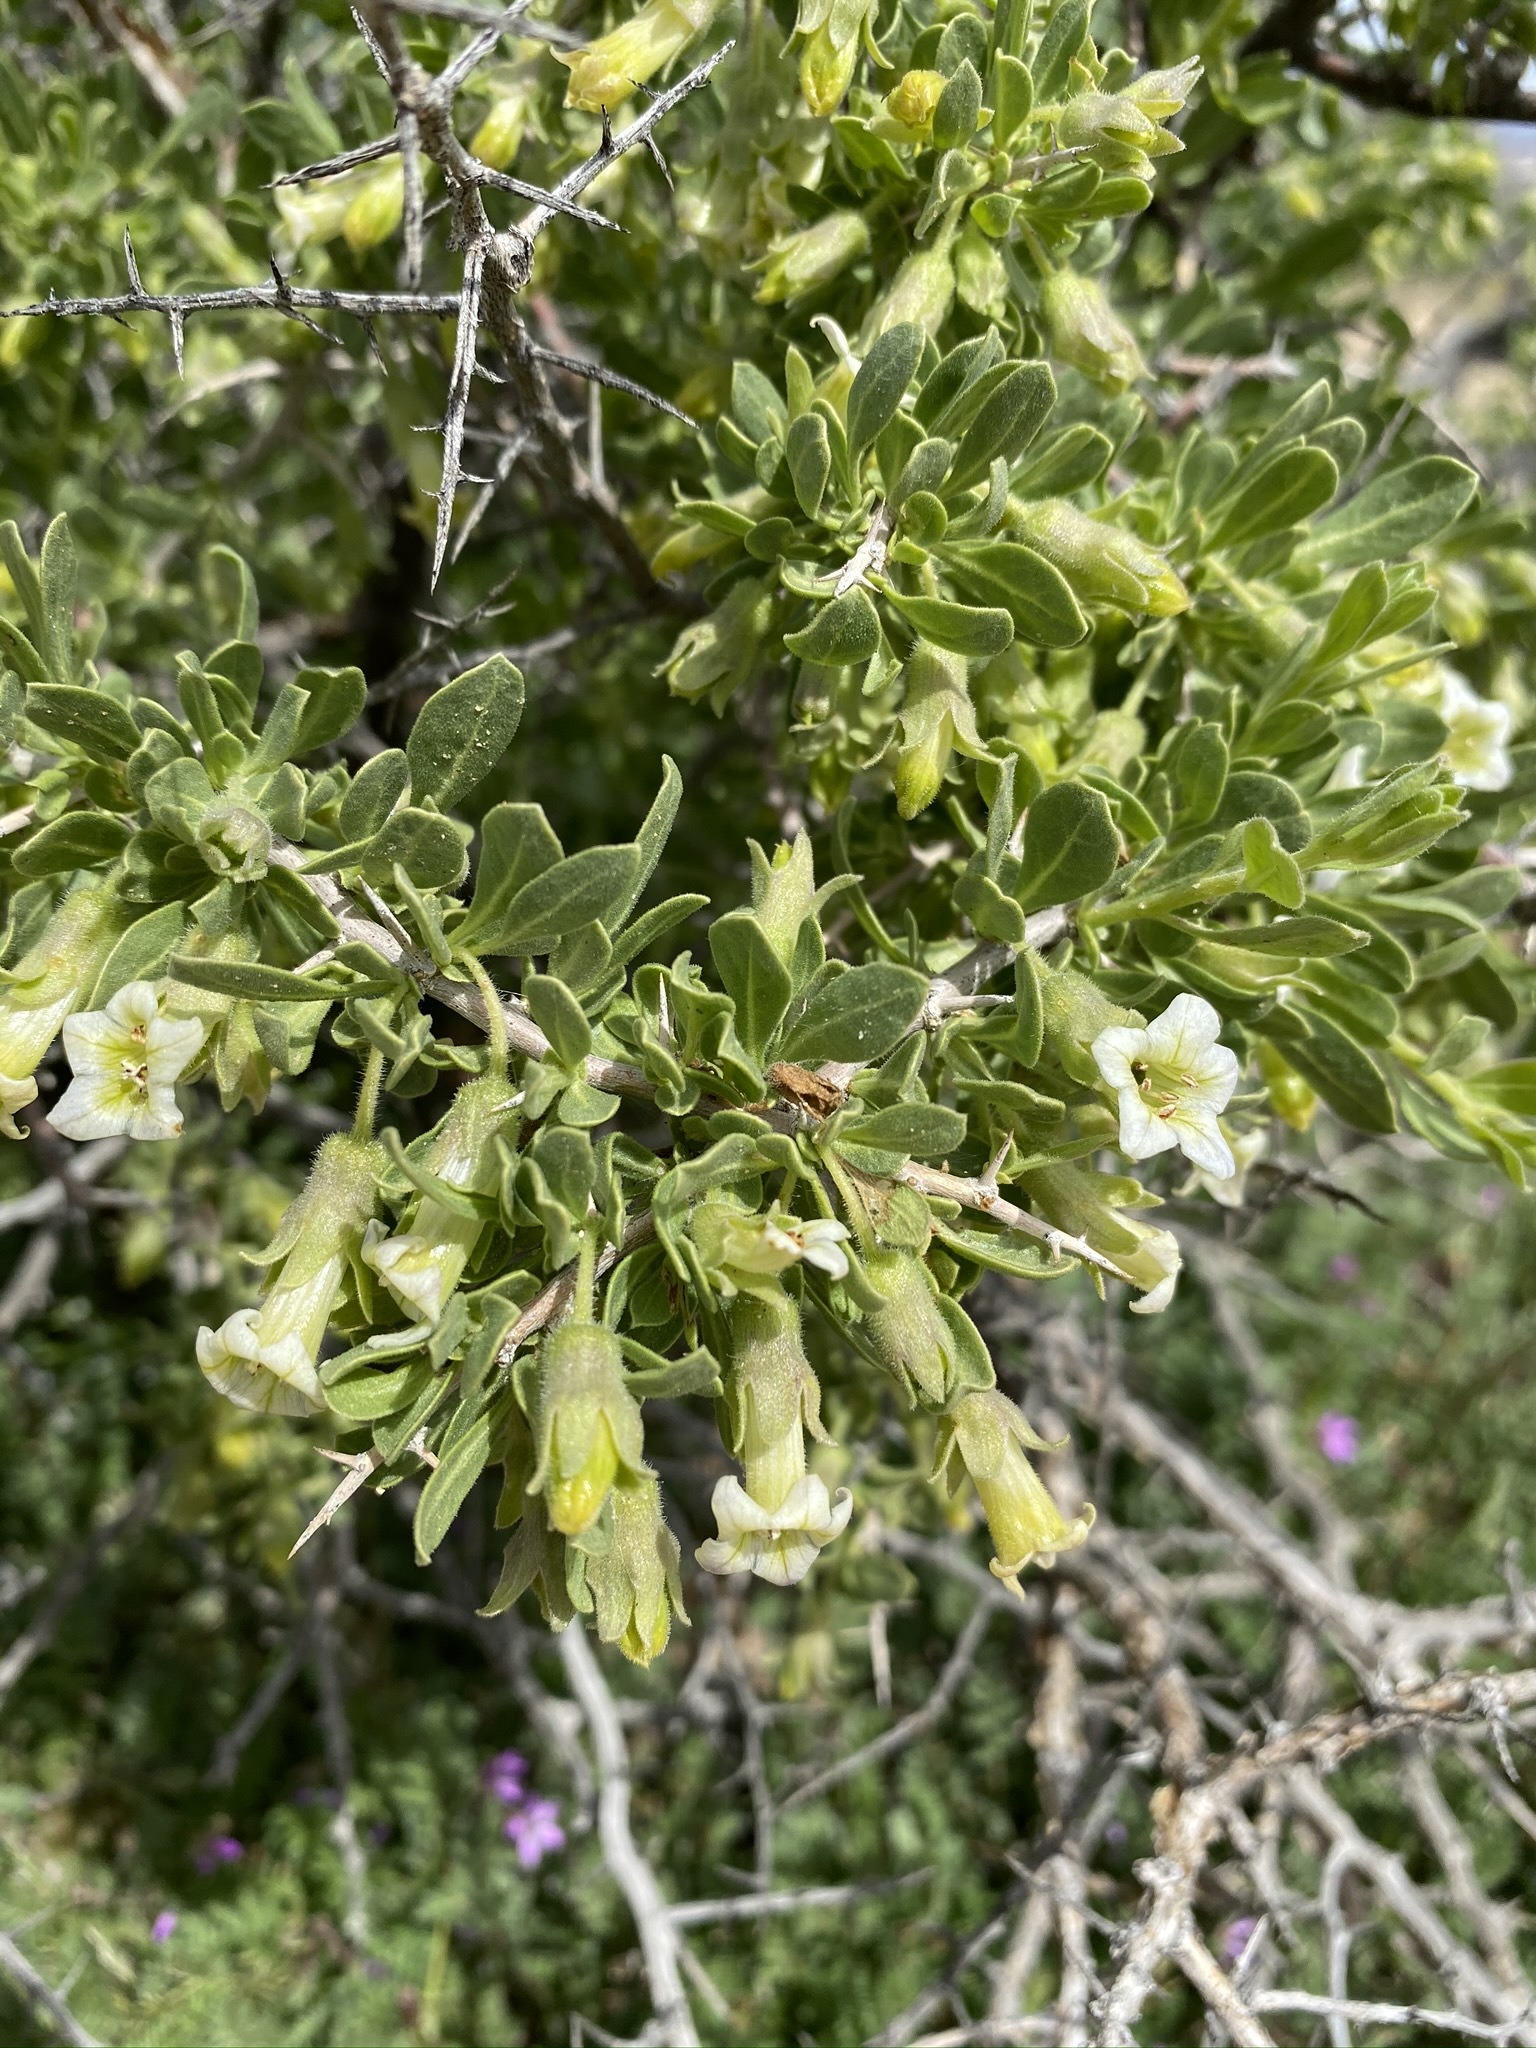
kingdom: Plantae
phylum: Tracheophyta
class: Magnoliopsida
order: Solanales
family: Solanaceae
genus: Lycium
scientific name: Lycium cooperi
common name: Peachthorn
